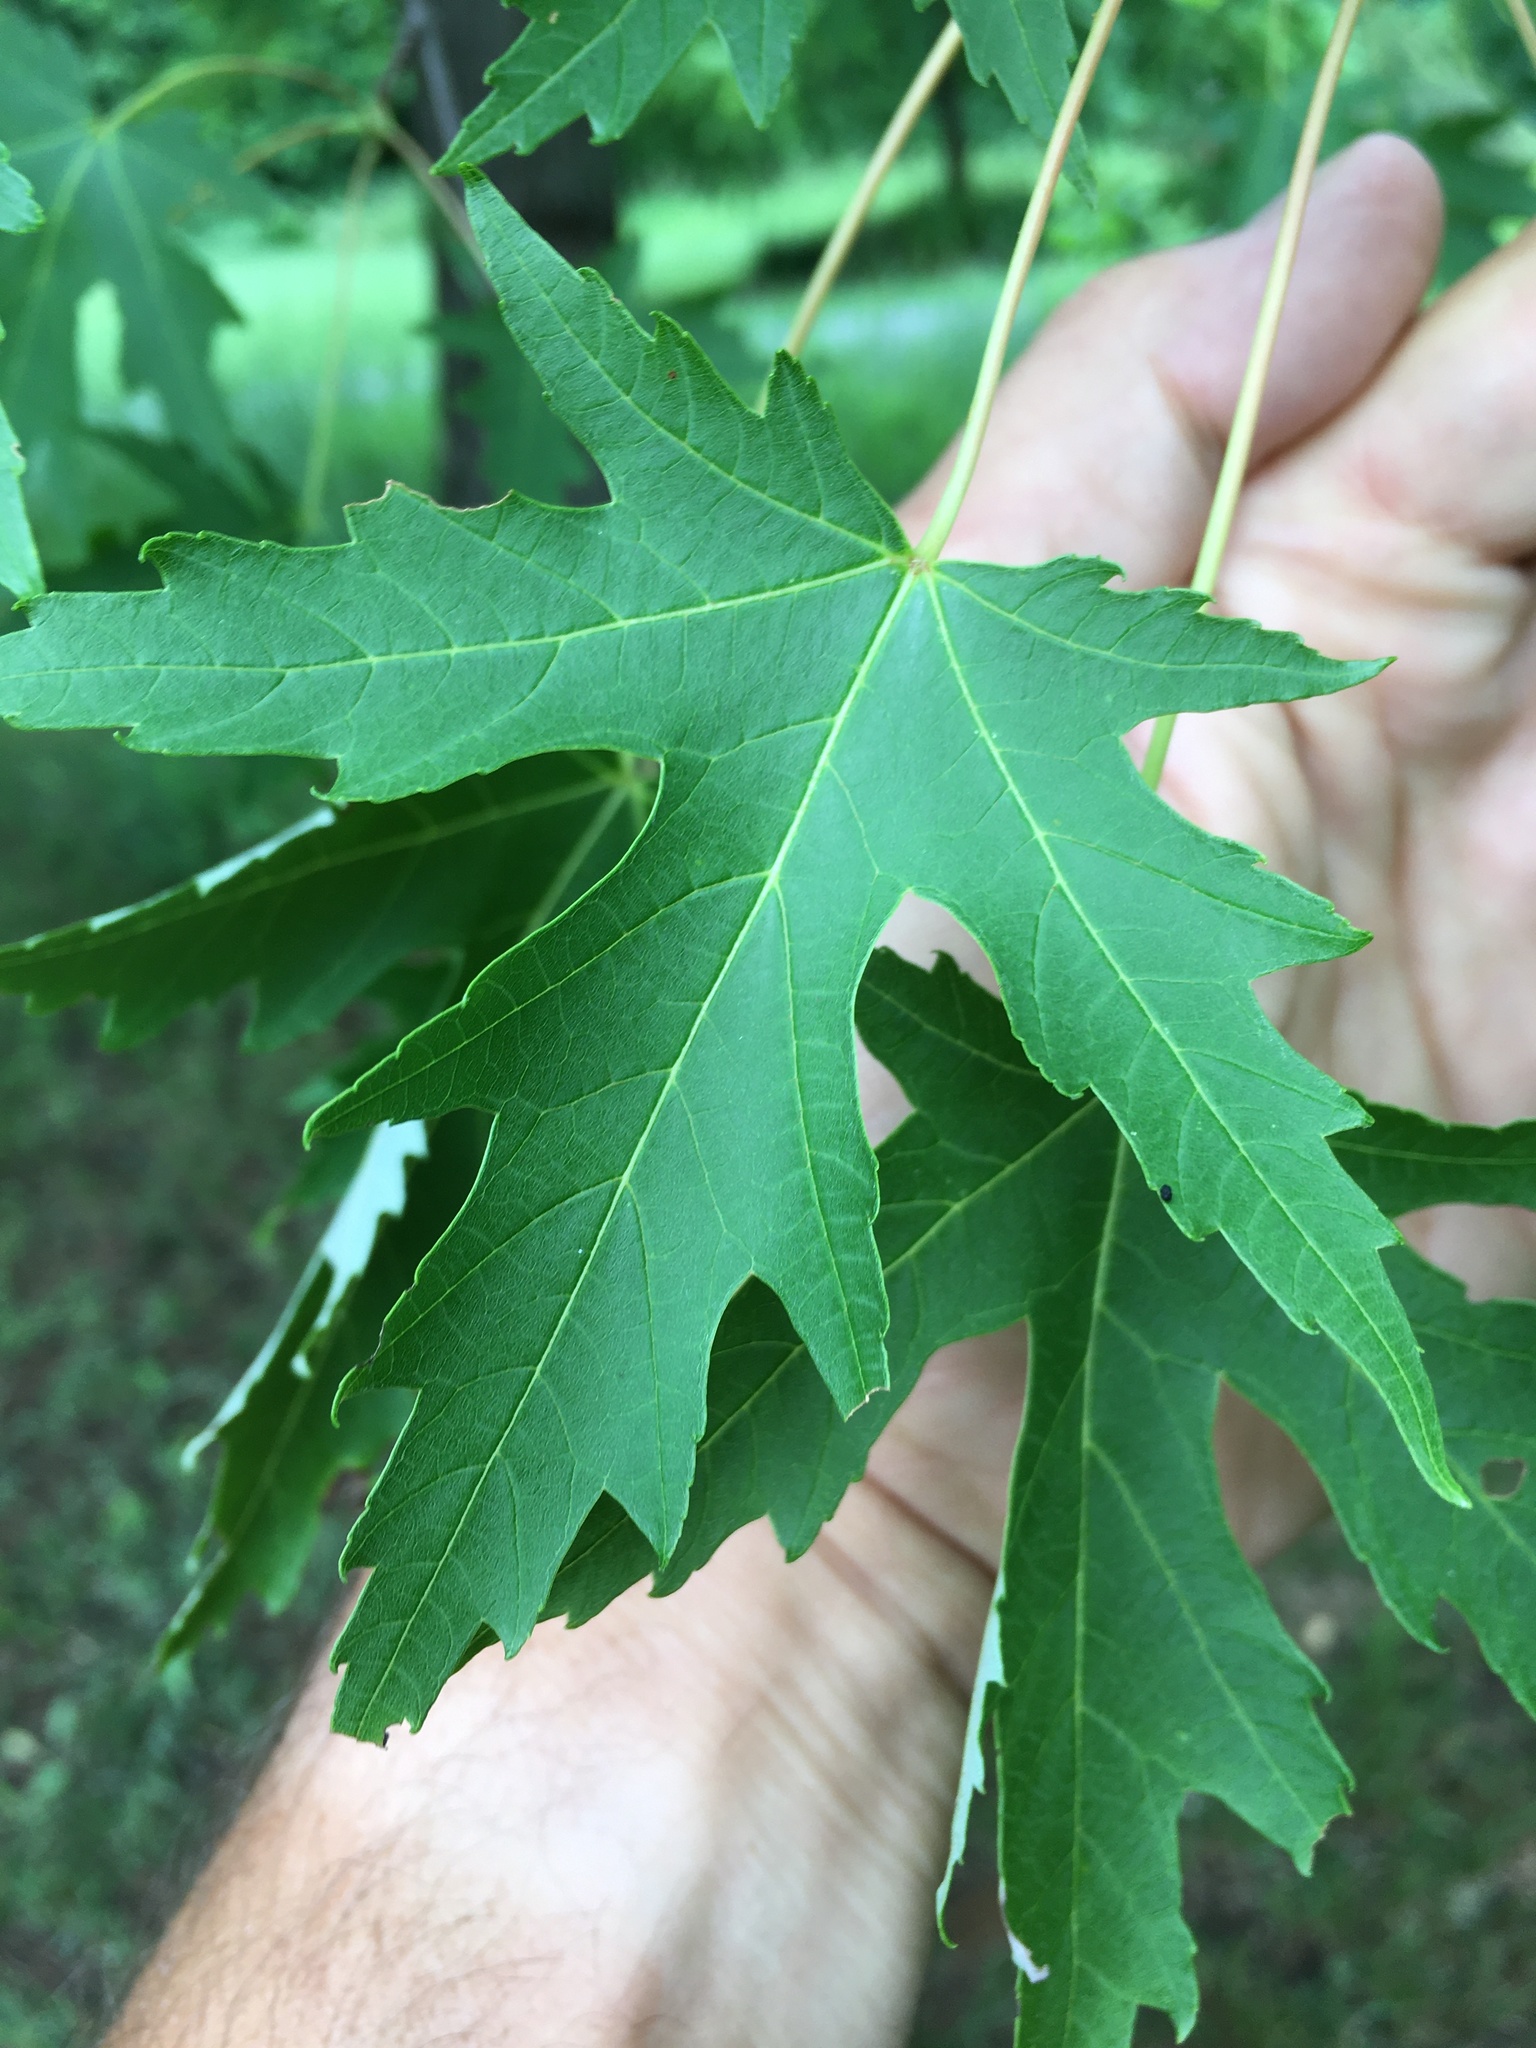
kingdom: Plantae
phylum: Tracheophyta
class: Magnoliopsida
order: Sapindales
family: Sapindaceae
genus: Acer
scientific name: Acer saccharinum
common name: Silver maple
